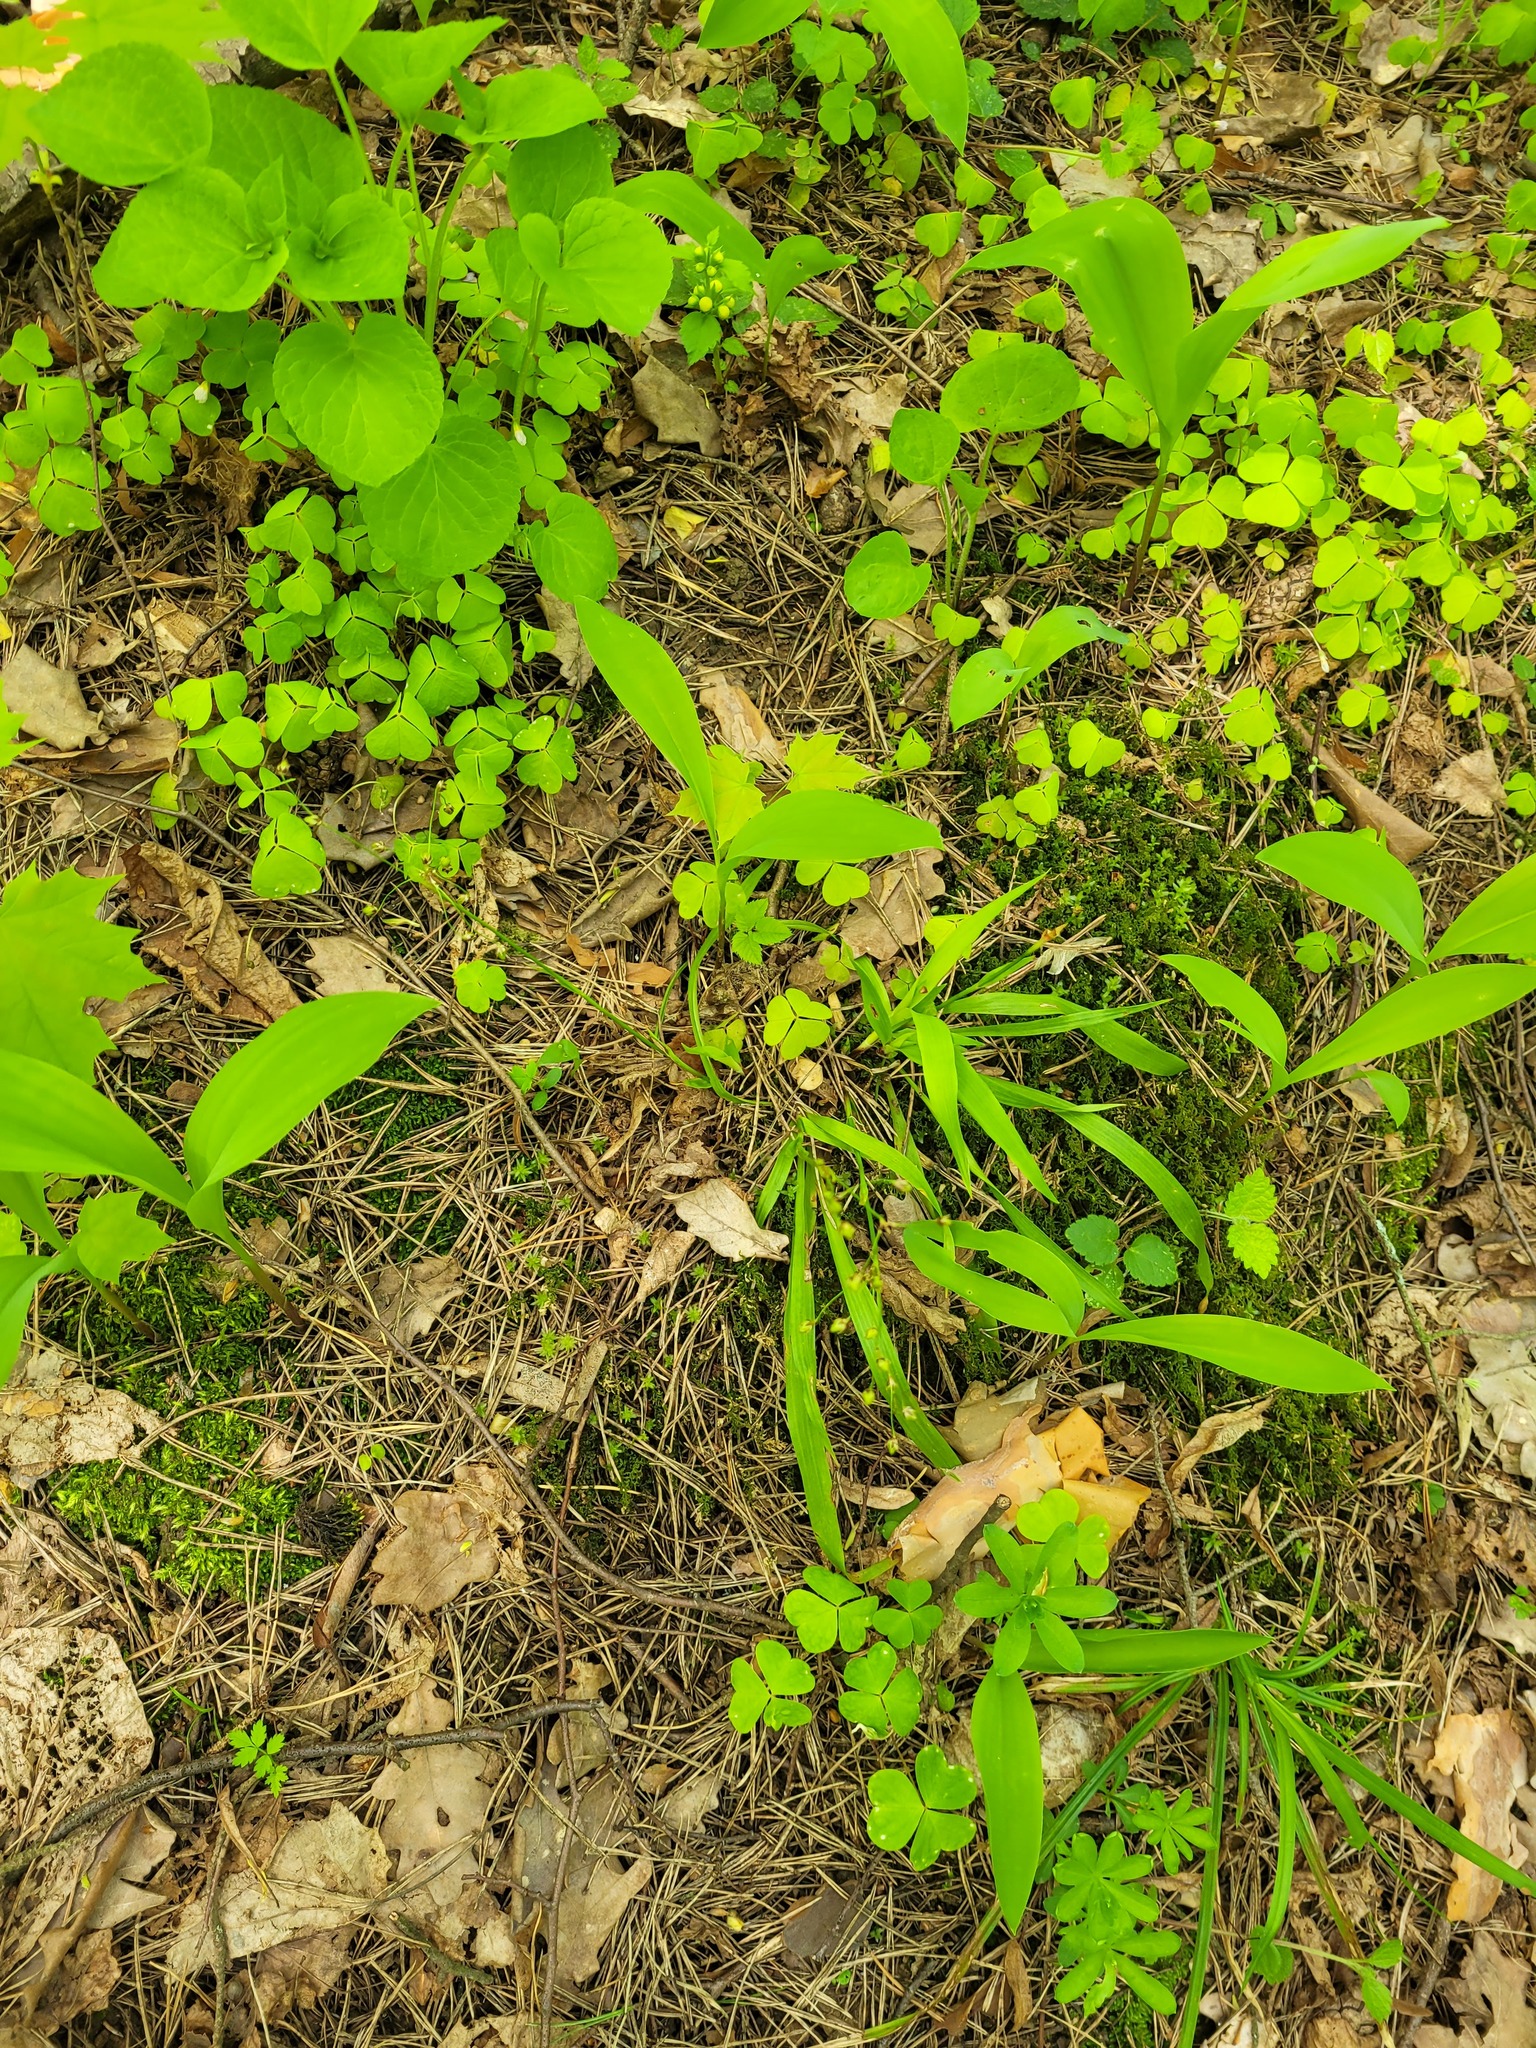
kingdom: Plantae
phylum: Tracheophyta
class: Liliopsida
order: Poales
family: Juncaceae
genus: Luzula
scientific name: Luzula pilosa
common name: Hairy wood-rush
